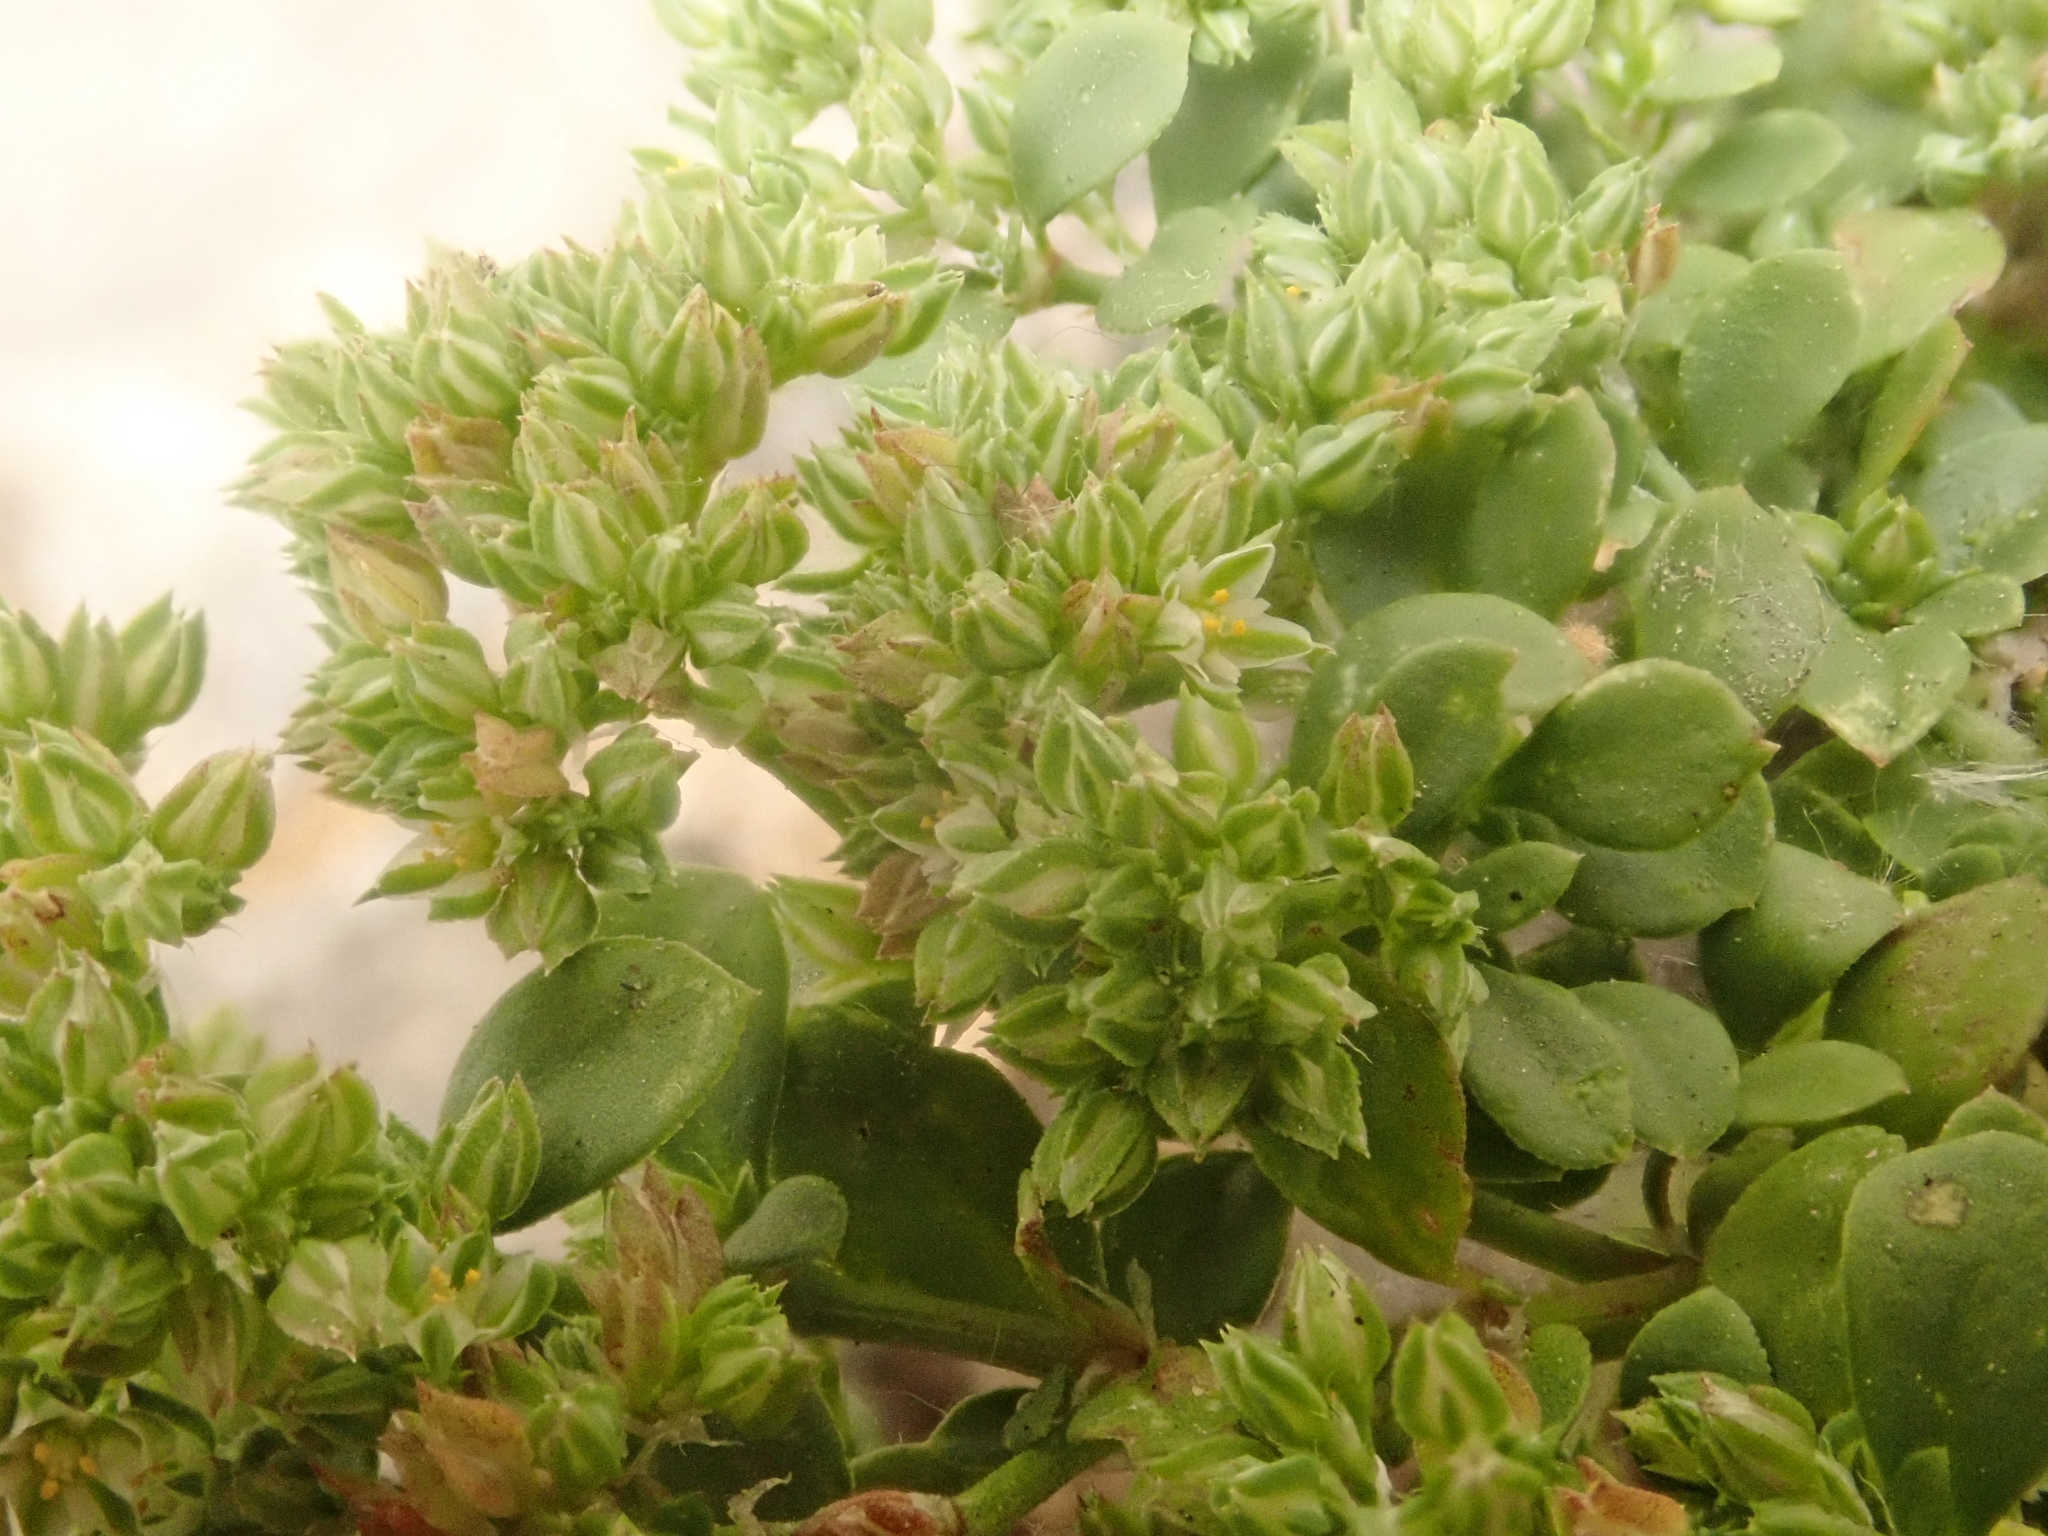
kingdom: Plantae
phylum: Tracheophyta
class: Magnoliopsida
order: Caryophyllales
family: Caryophyllaceae
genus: Polycarpon
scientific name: Polycarpon tetraphyllum
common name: Four-leaved all-seed
